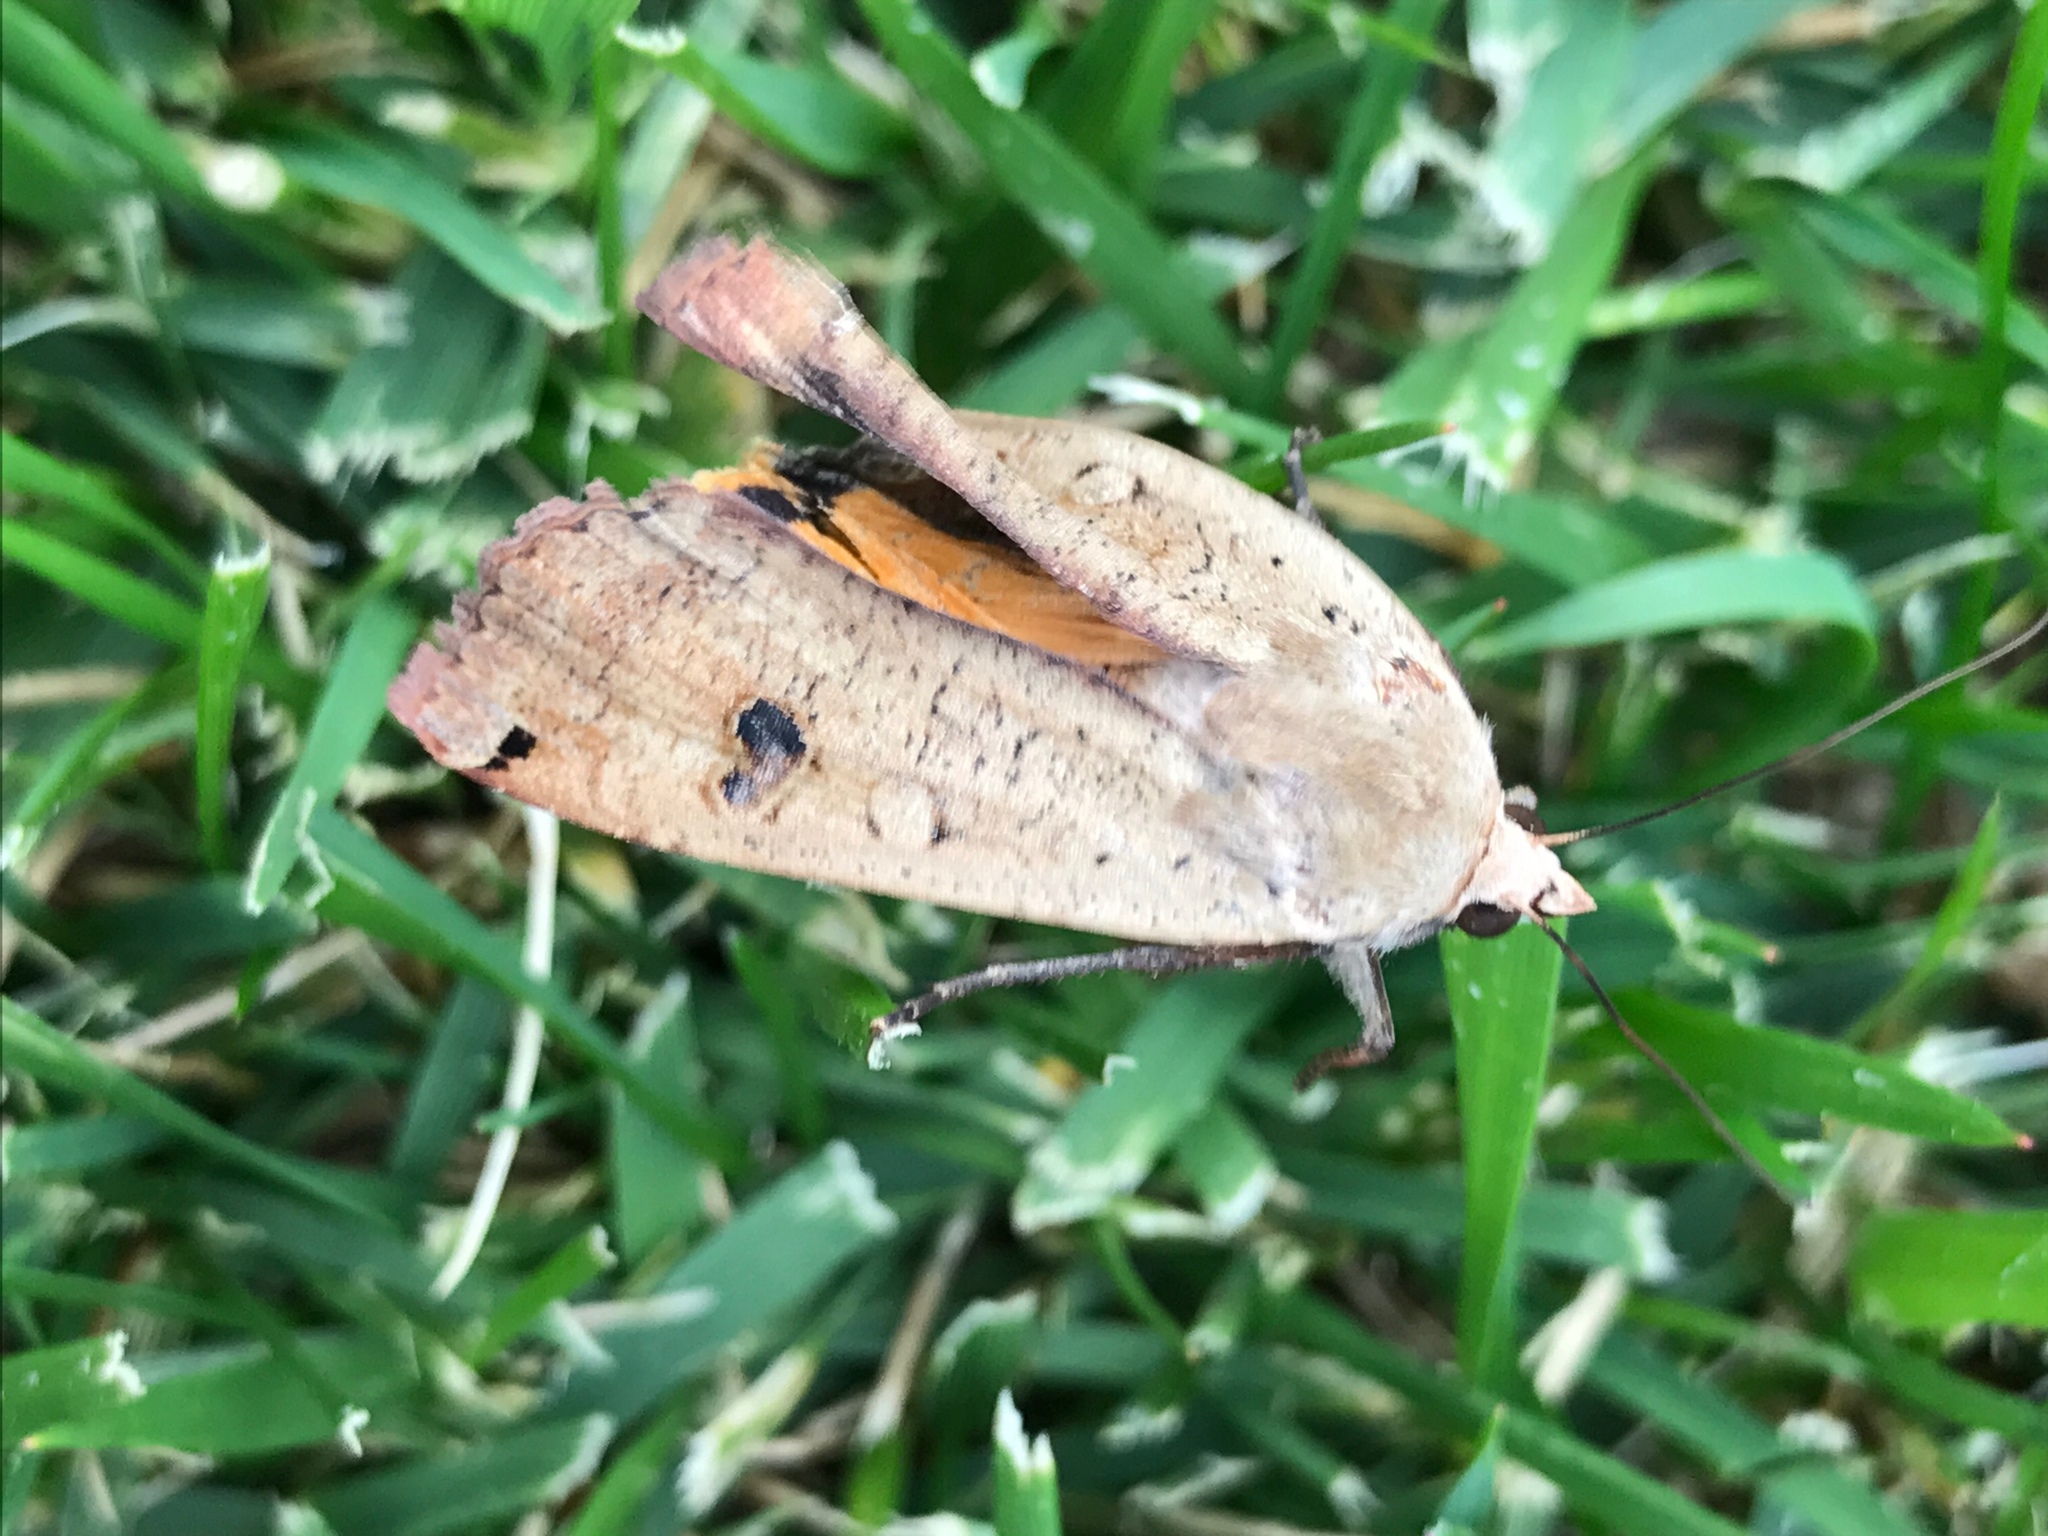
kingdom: Animalia
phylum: Arthropoda
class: Insecta
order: Lepidoptera
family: Noctuidae
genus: Noctua
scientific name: Noctua pronuba
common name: Large yellow underwing
